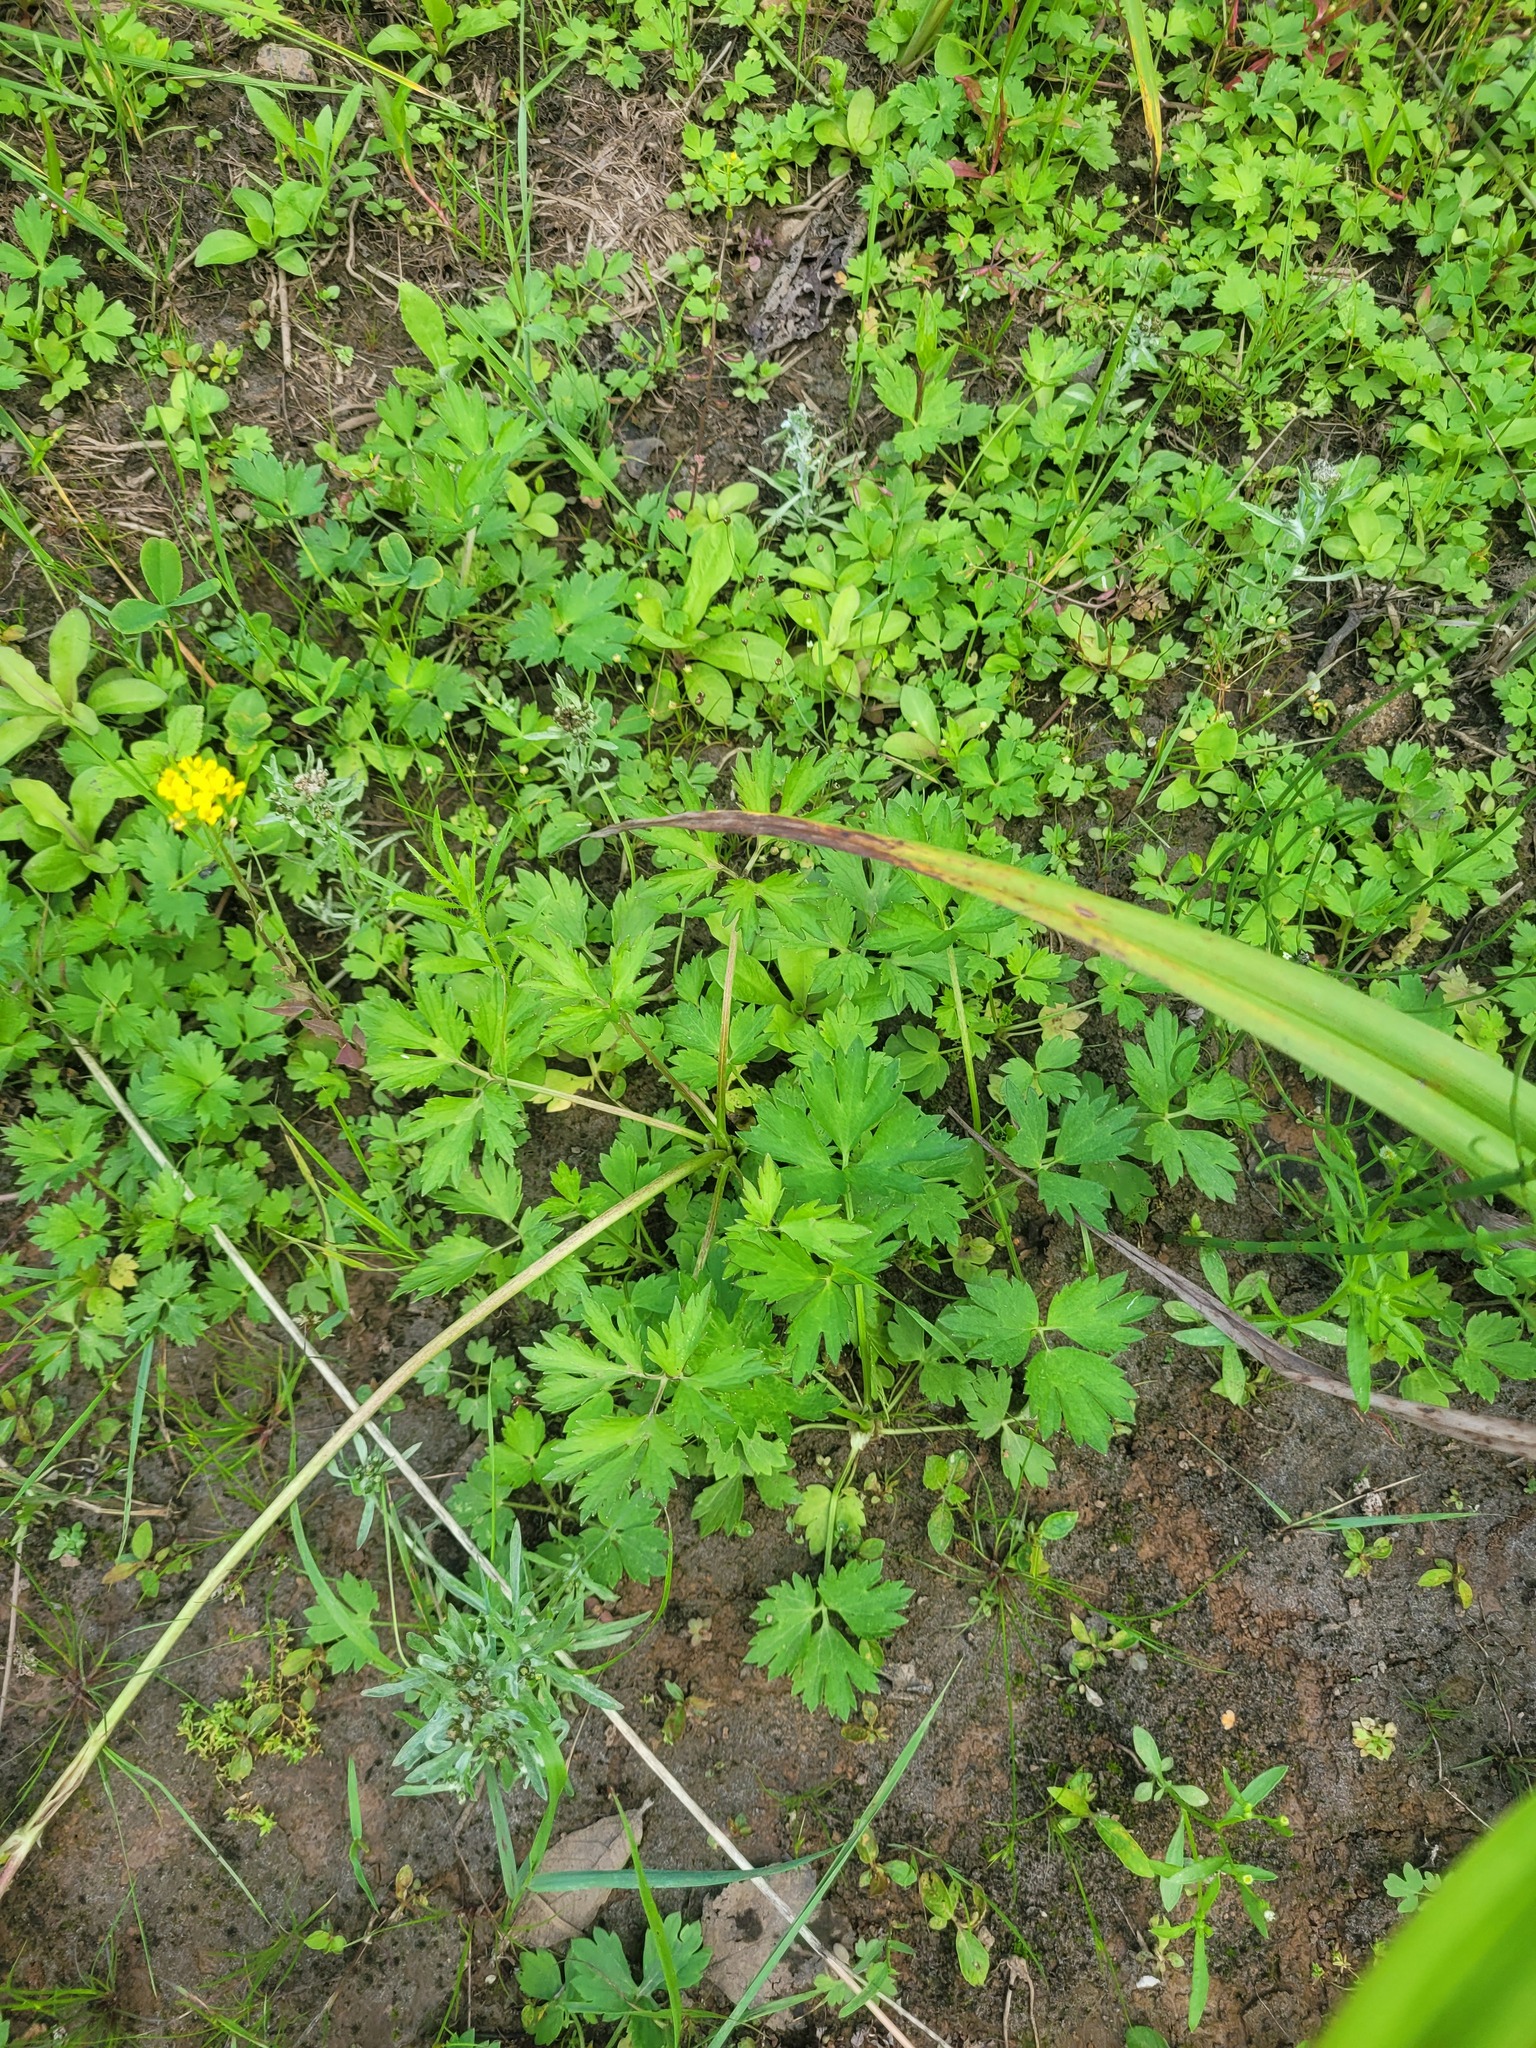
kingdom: Plantae
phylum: Tracheophyta
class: Magnoliopsida
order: Ranunculales
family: Ranunculaceae
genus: Ranunculus
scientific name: Ranunculus repens
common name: Creeping buttercup
